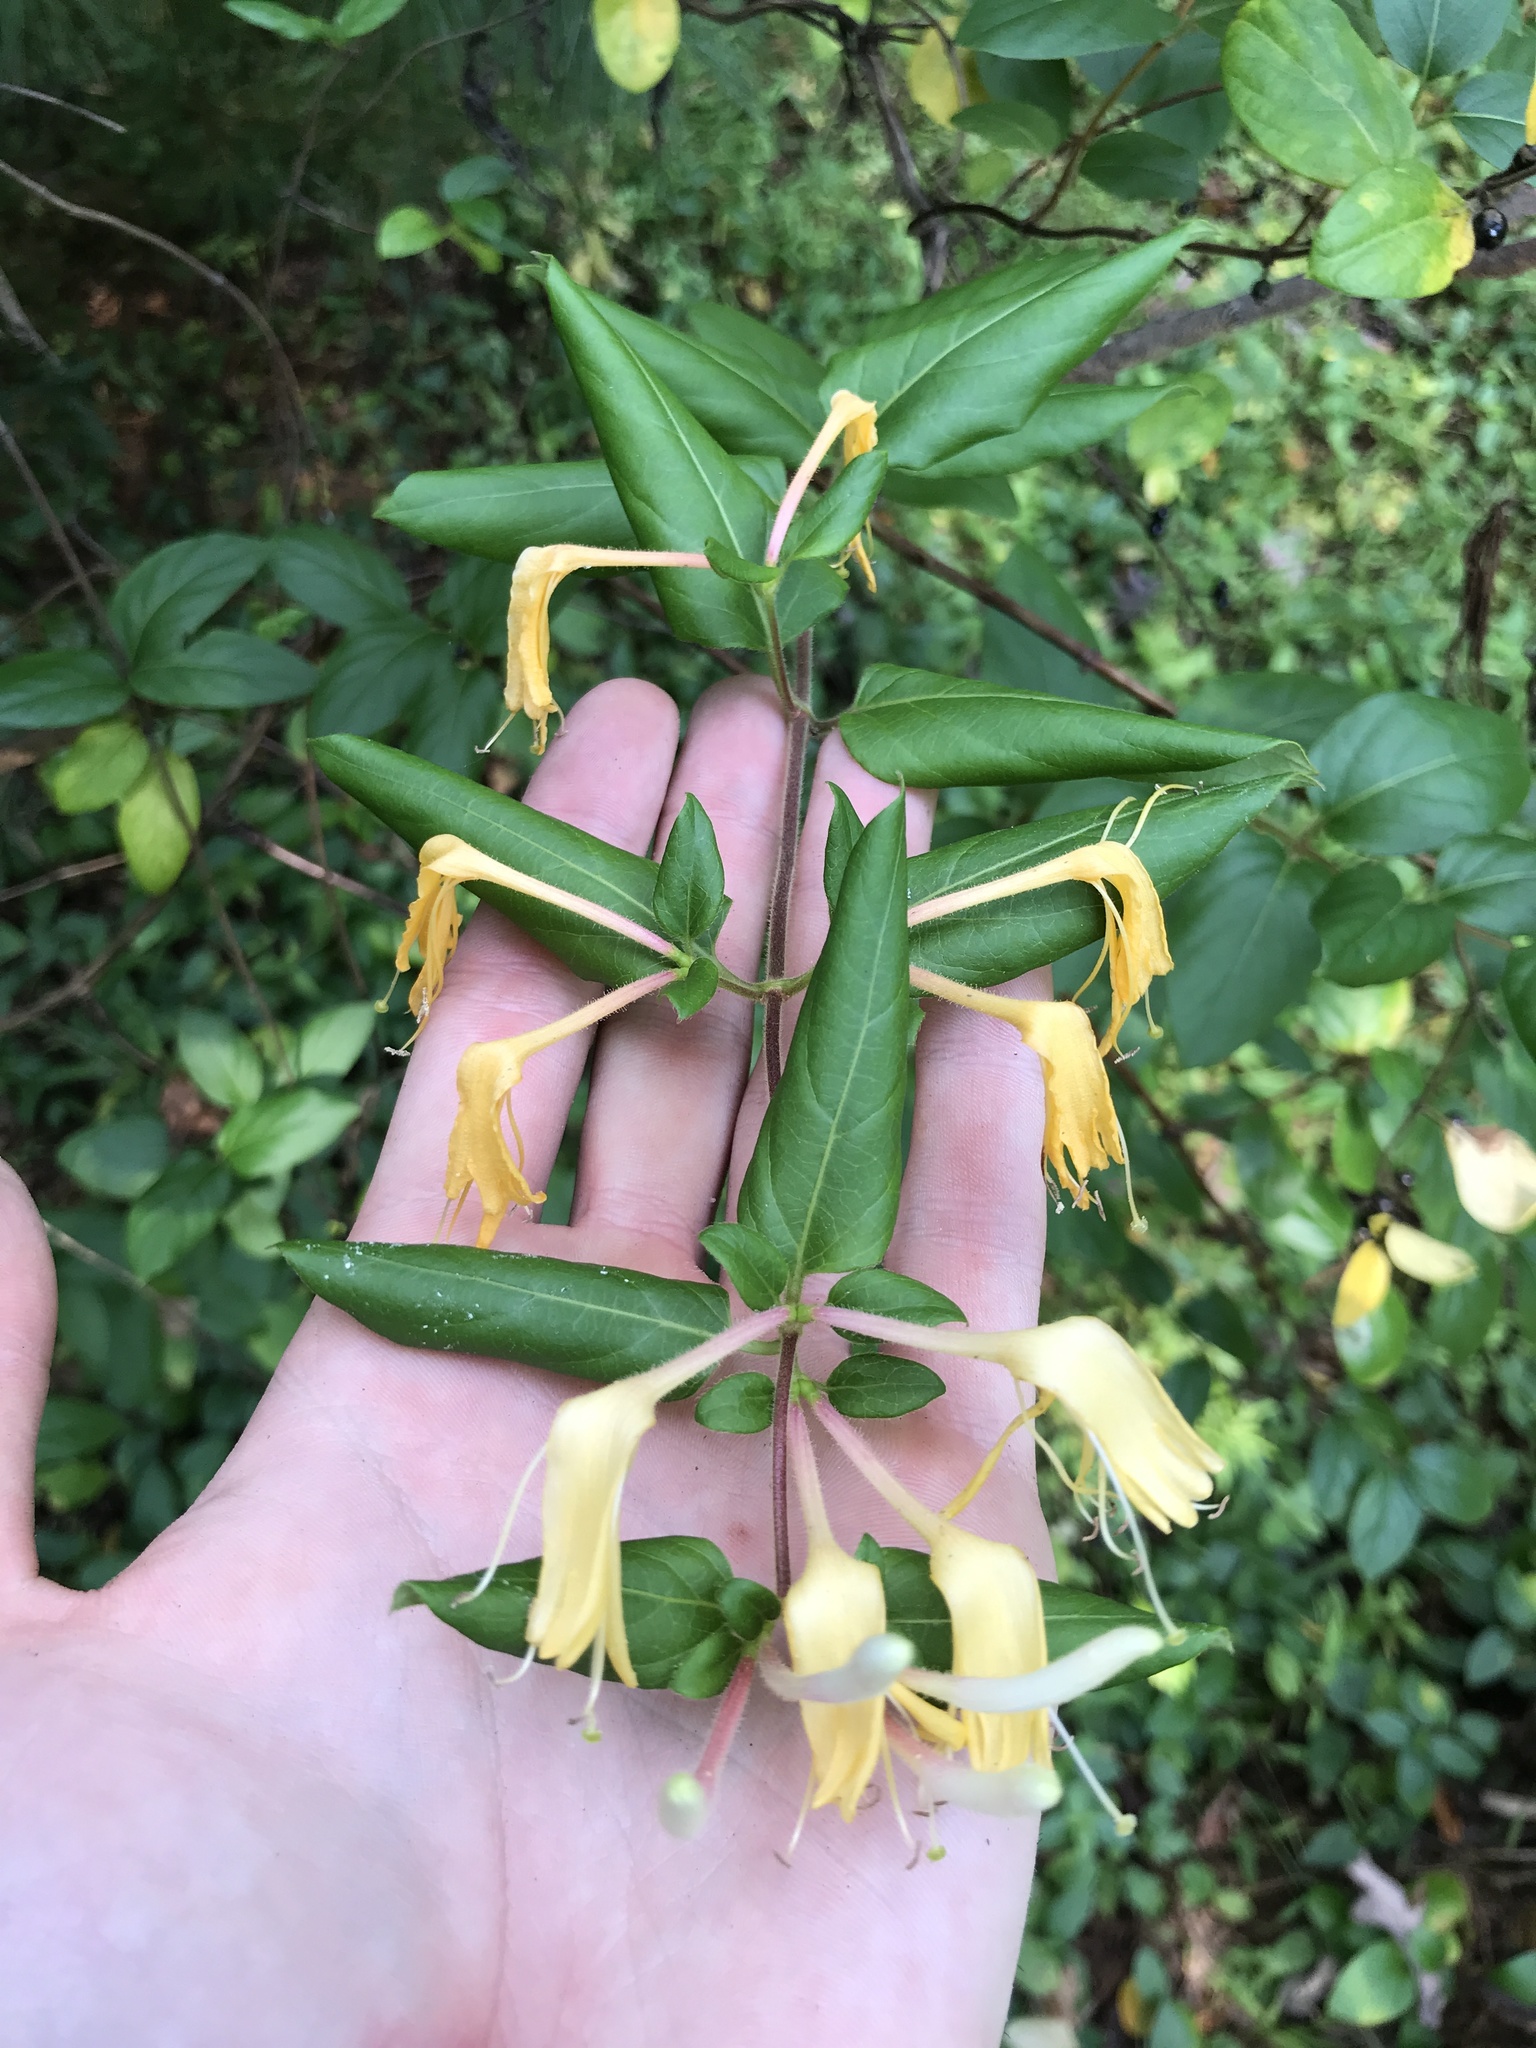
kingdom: Plantae
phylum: Tracheophyta
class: Magnoliopsida
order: Dipsacales
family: Caprifoliaceae
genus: Lonicera
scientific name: Lonicera japonica
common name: Japanese honeysuckle
